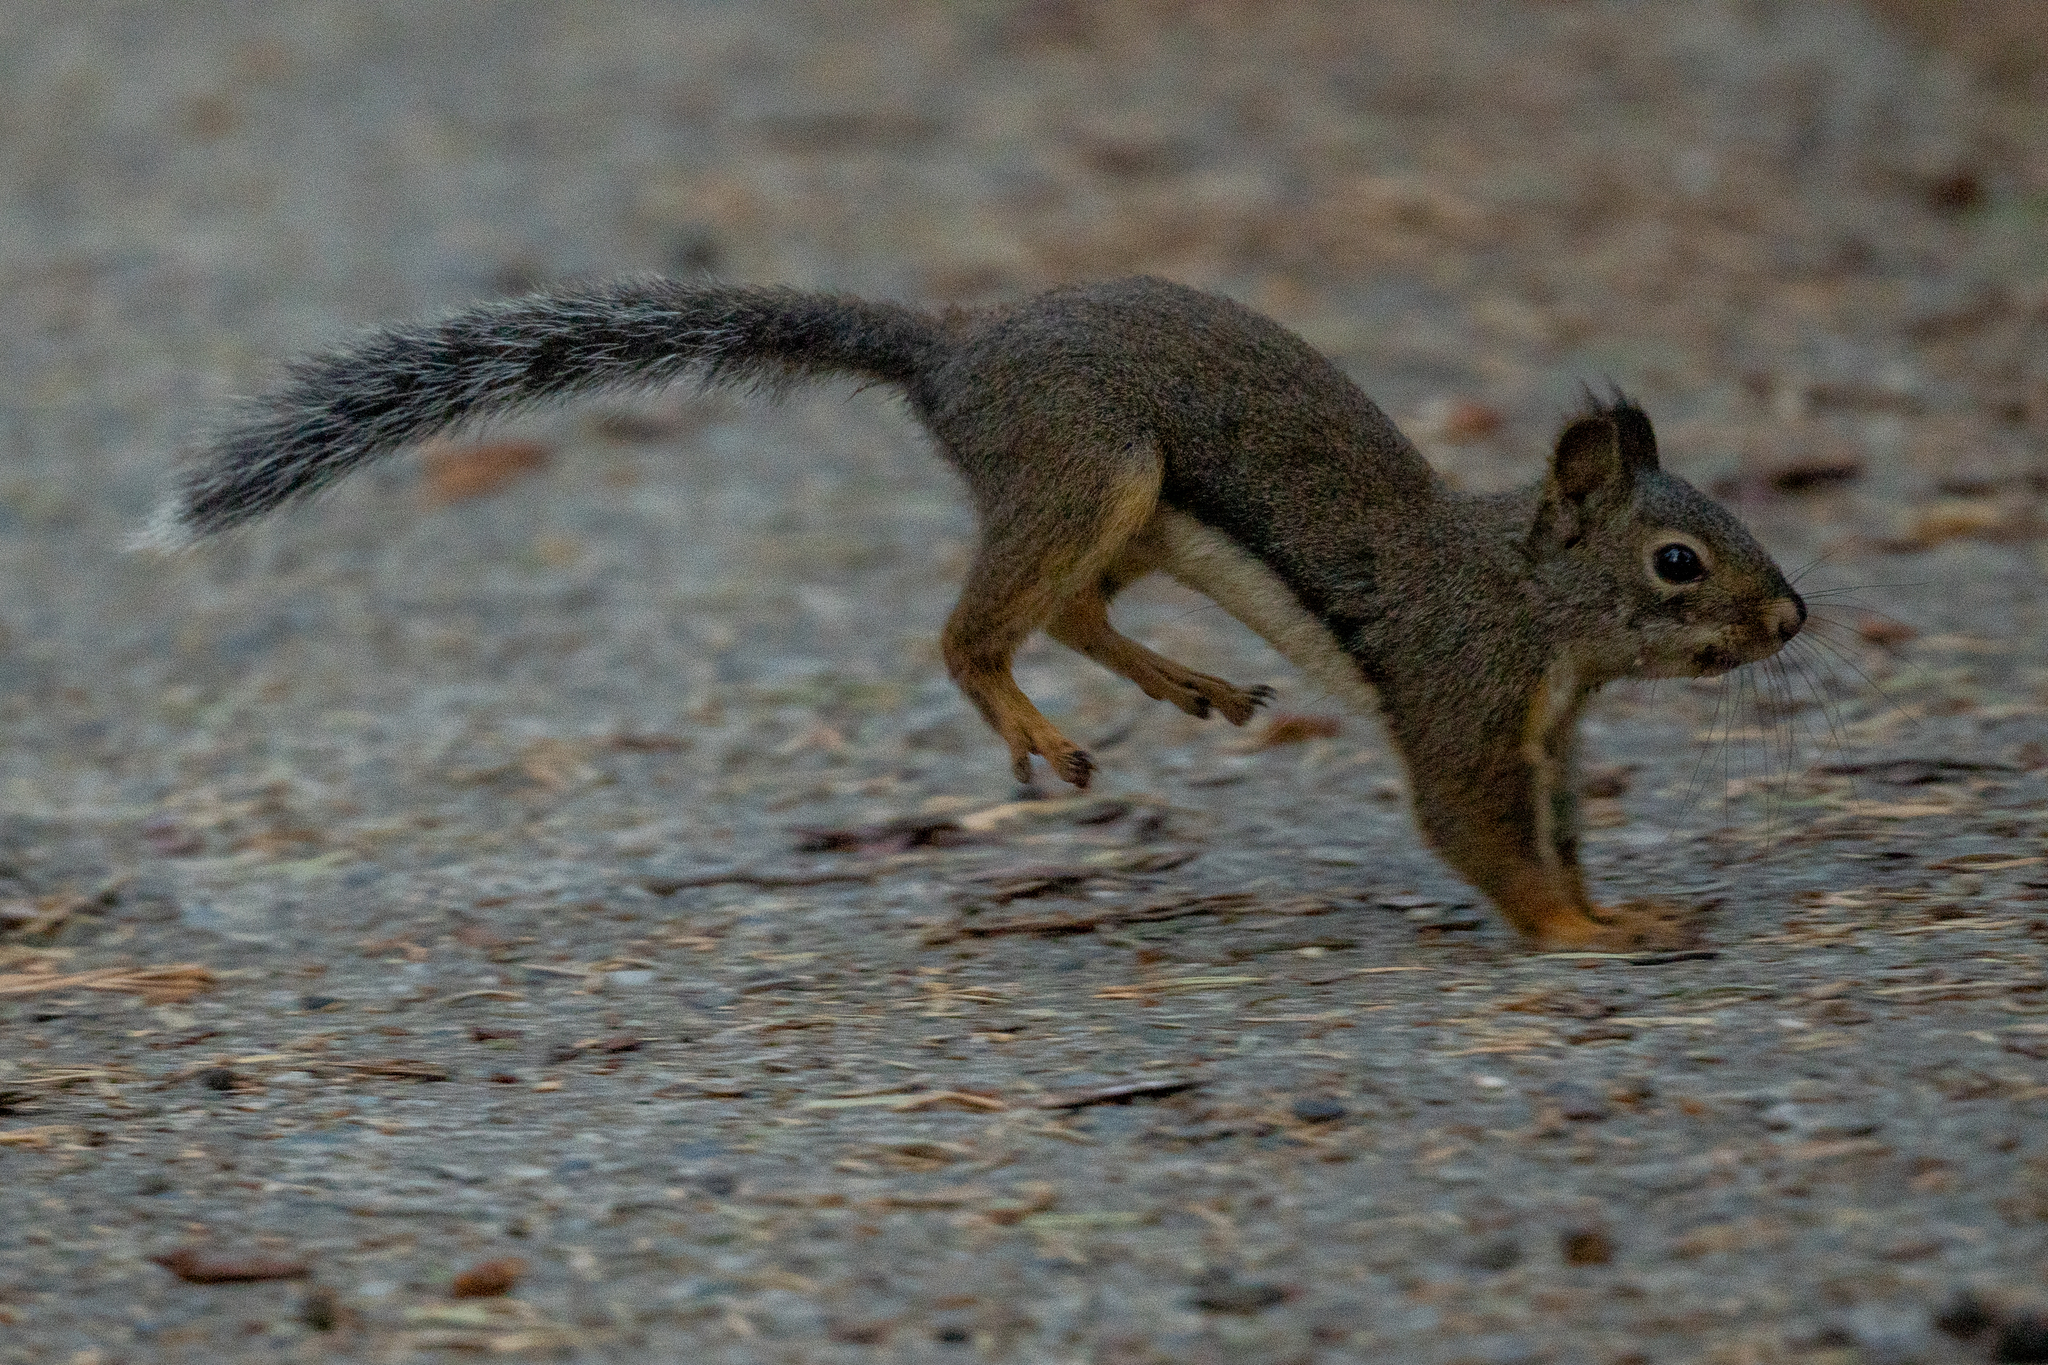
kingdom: Animalia
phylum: Chordata
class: Mammalia
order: Rodentia
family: Sciuridae
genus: Tamiasciurus
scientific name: Tamiasciurus douglasii
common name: Douglas's squirrel
